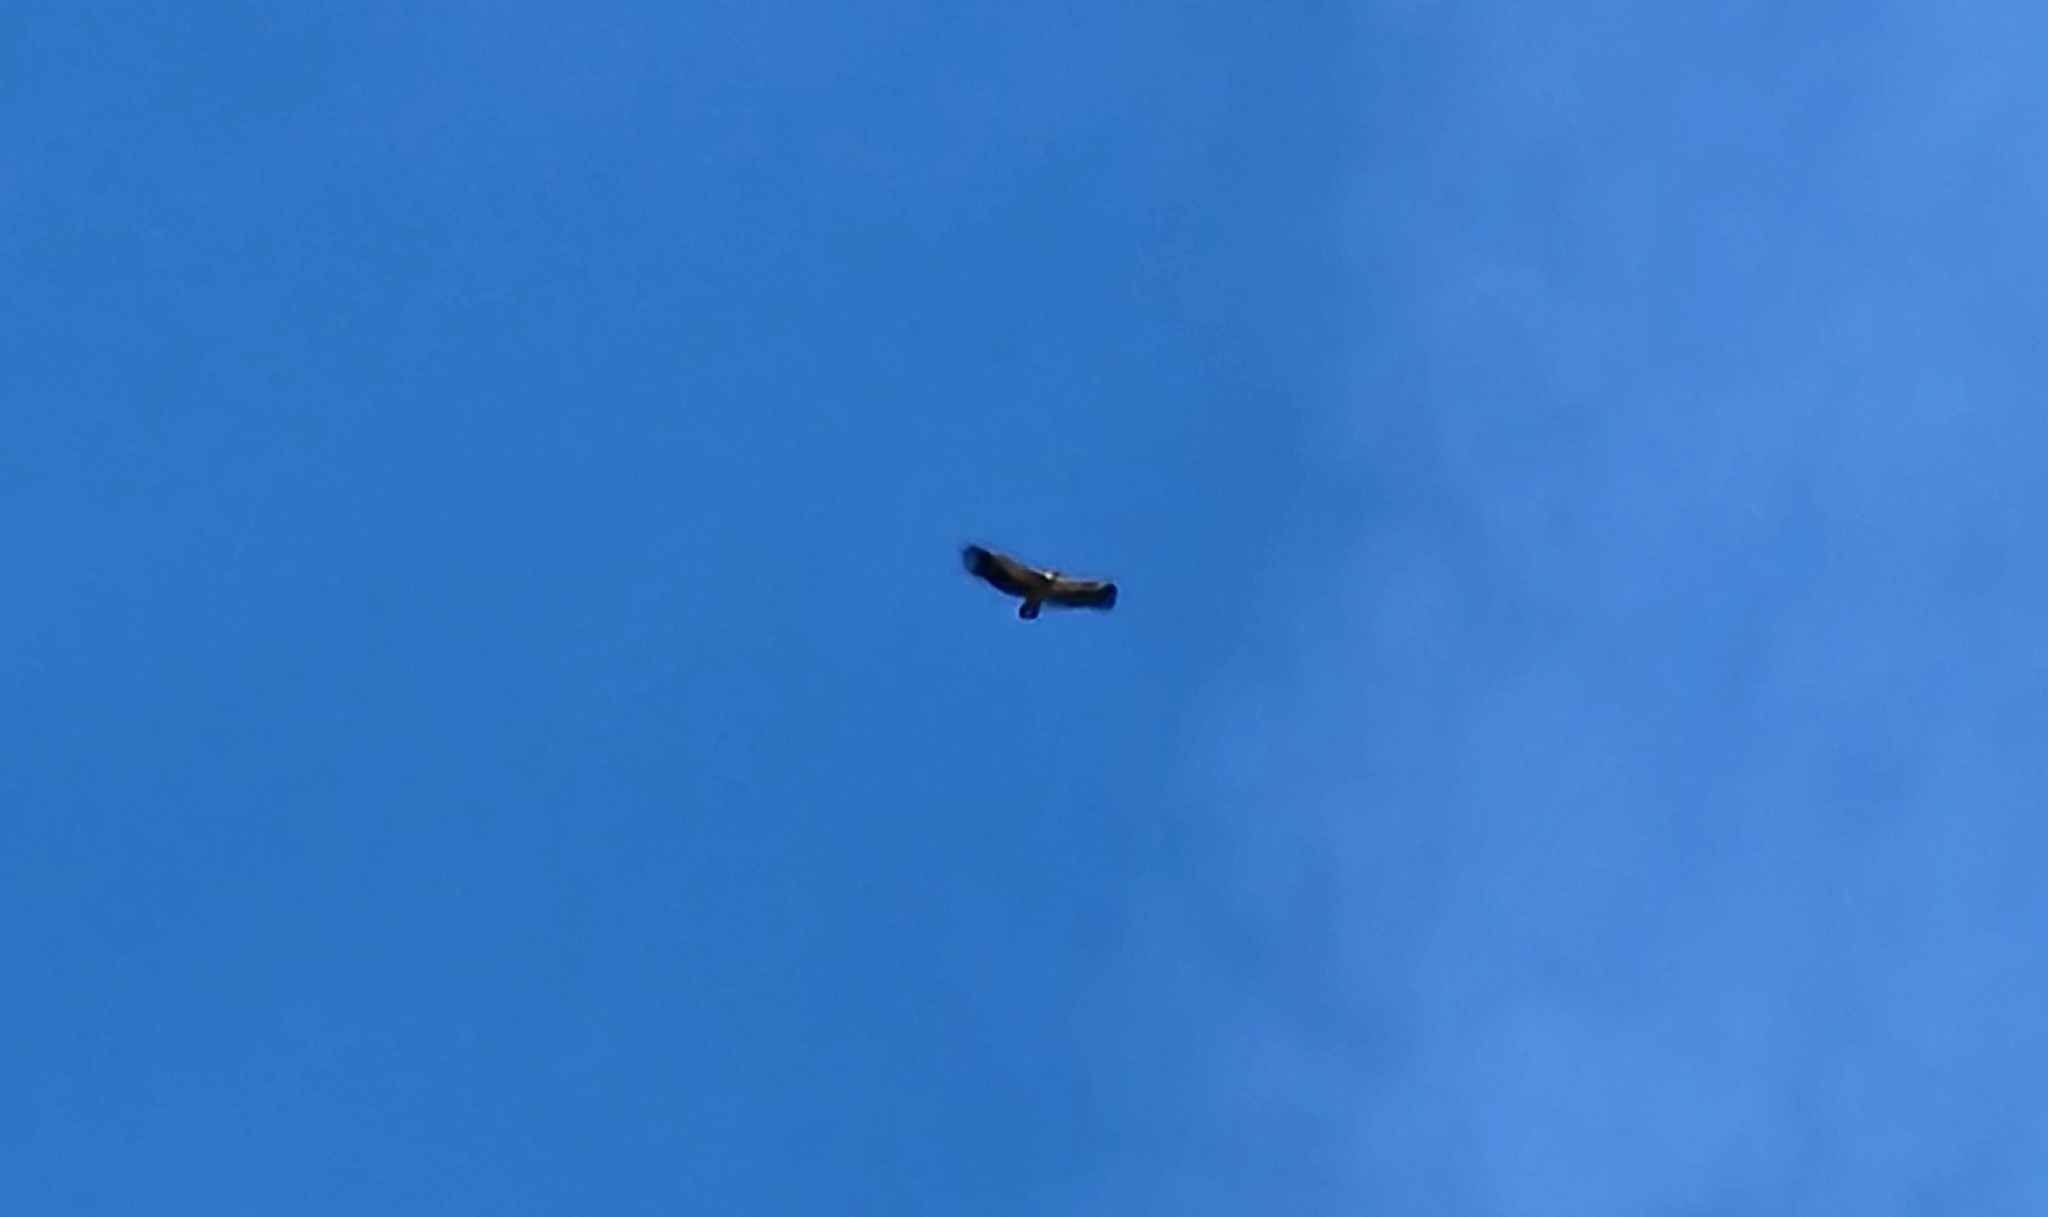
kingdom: Animalia
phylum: Chordata
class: Aves
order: Accipitriformes
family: Accipitridae
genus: Gyps
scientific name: Gyps fulvus
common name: Griffon vulture
